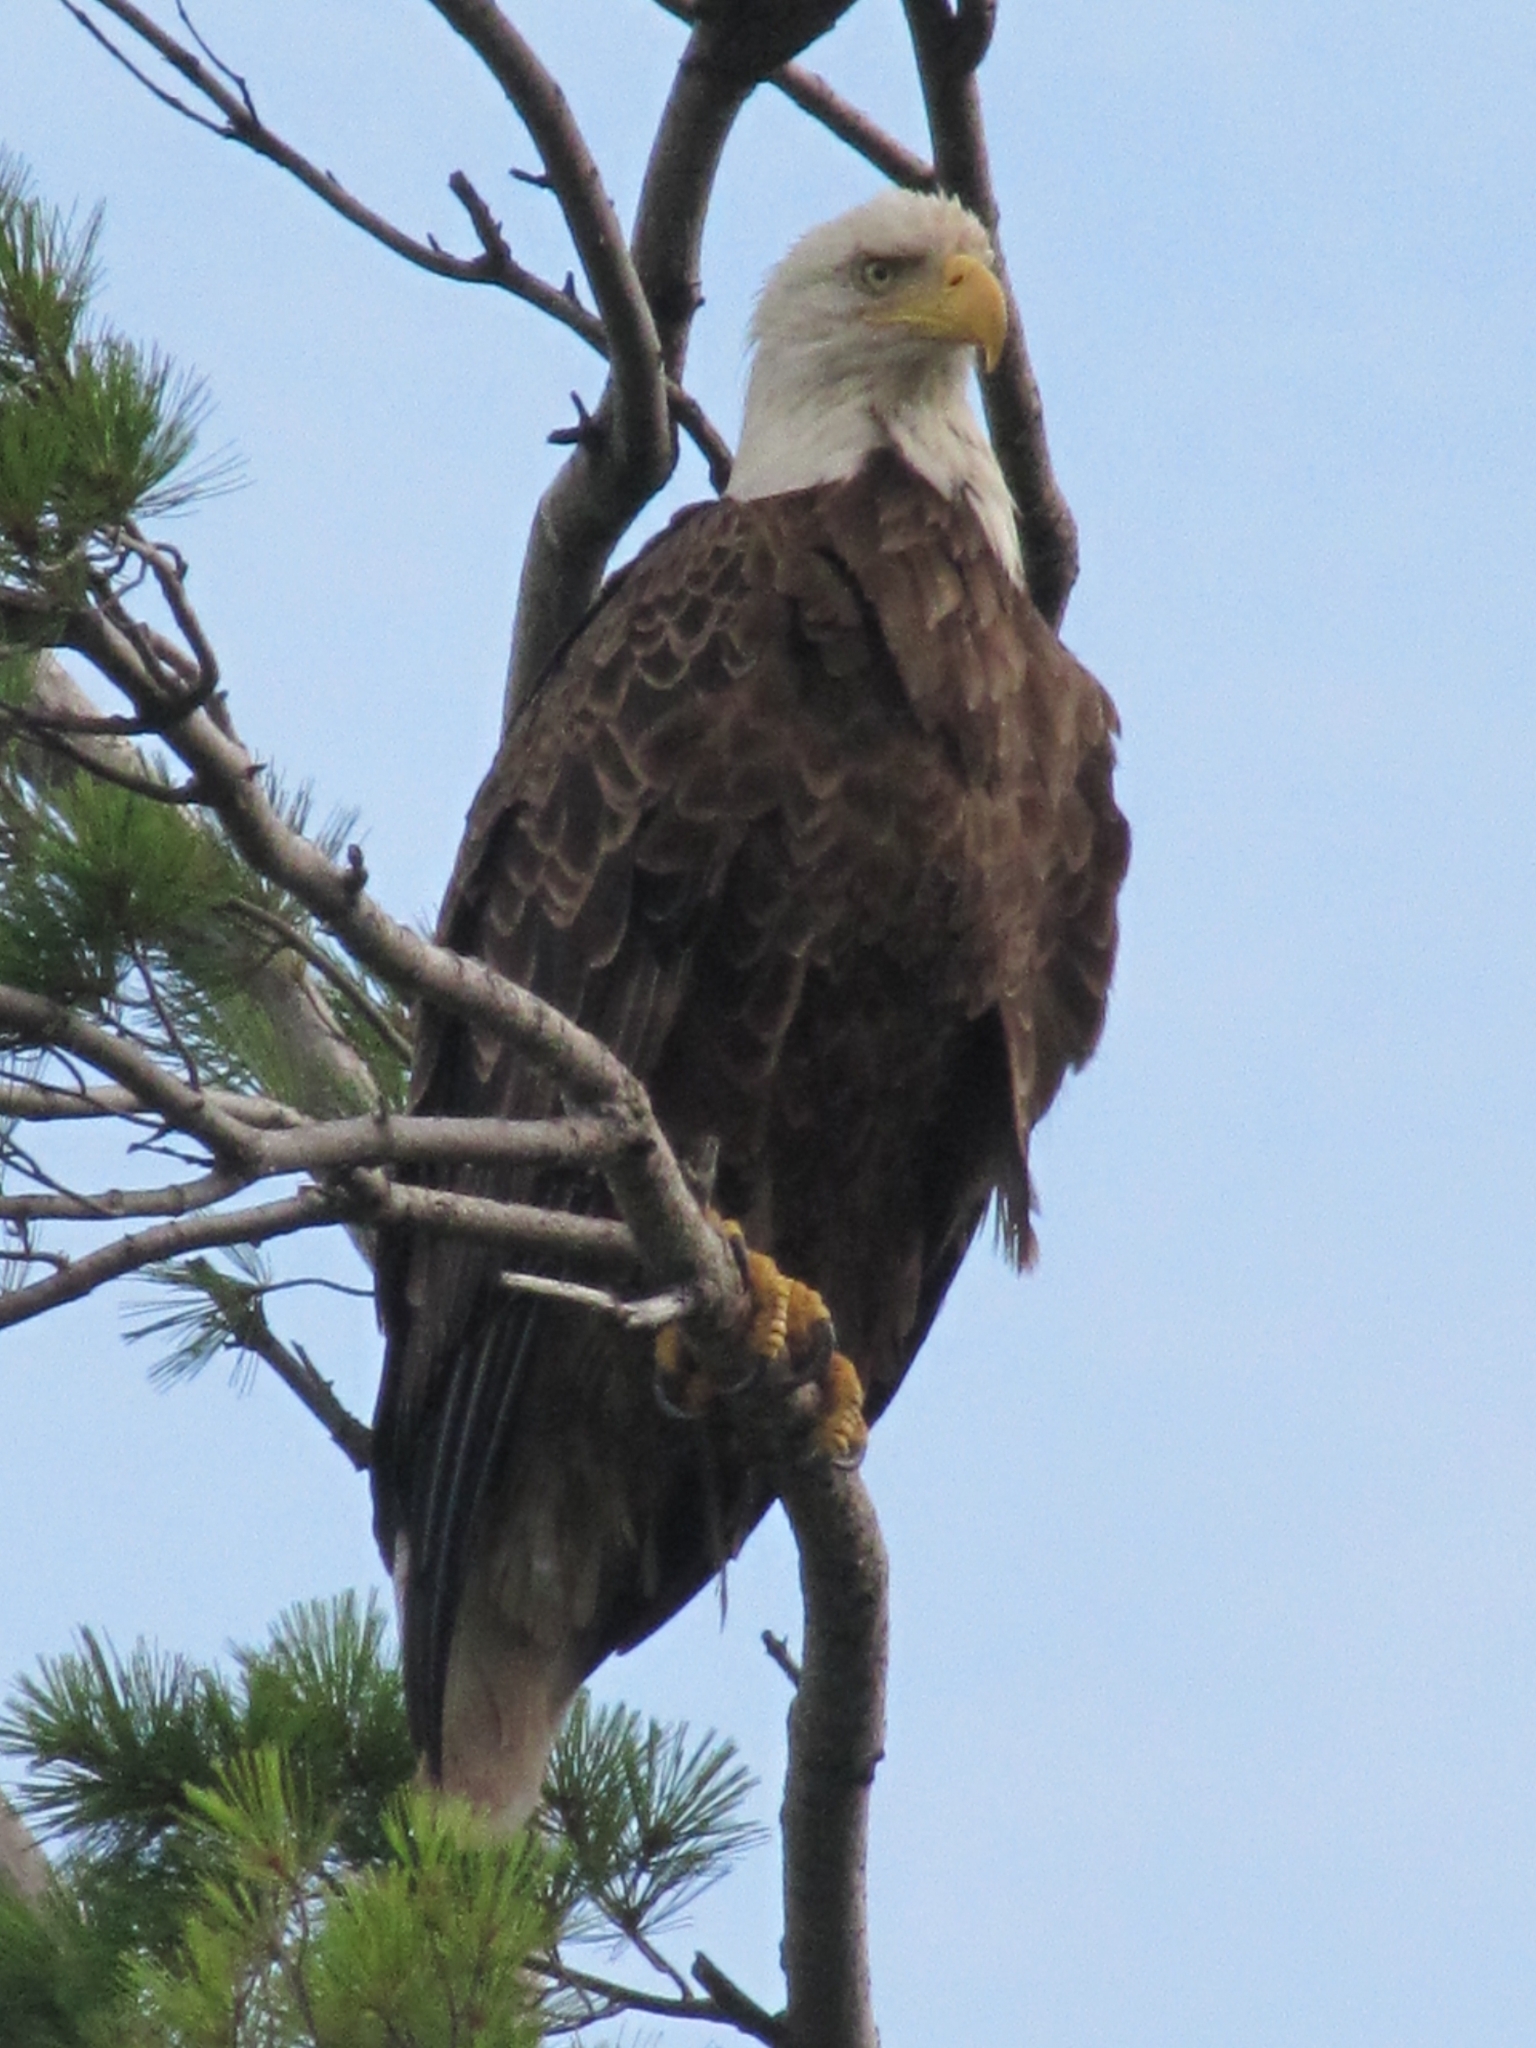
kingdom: Animalia
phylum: Chordata
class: Aves
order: Accipitriformes
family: Accipitridae
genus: Haliaeetus
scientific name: Haliaeetus leucocephalus
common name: Bald eagle
